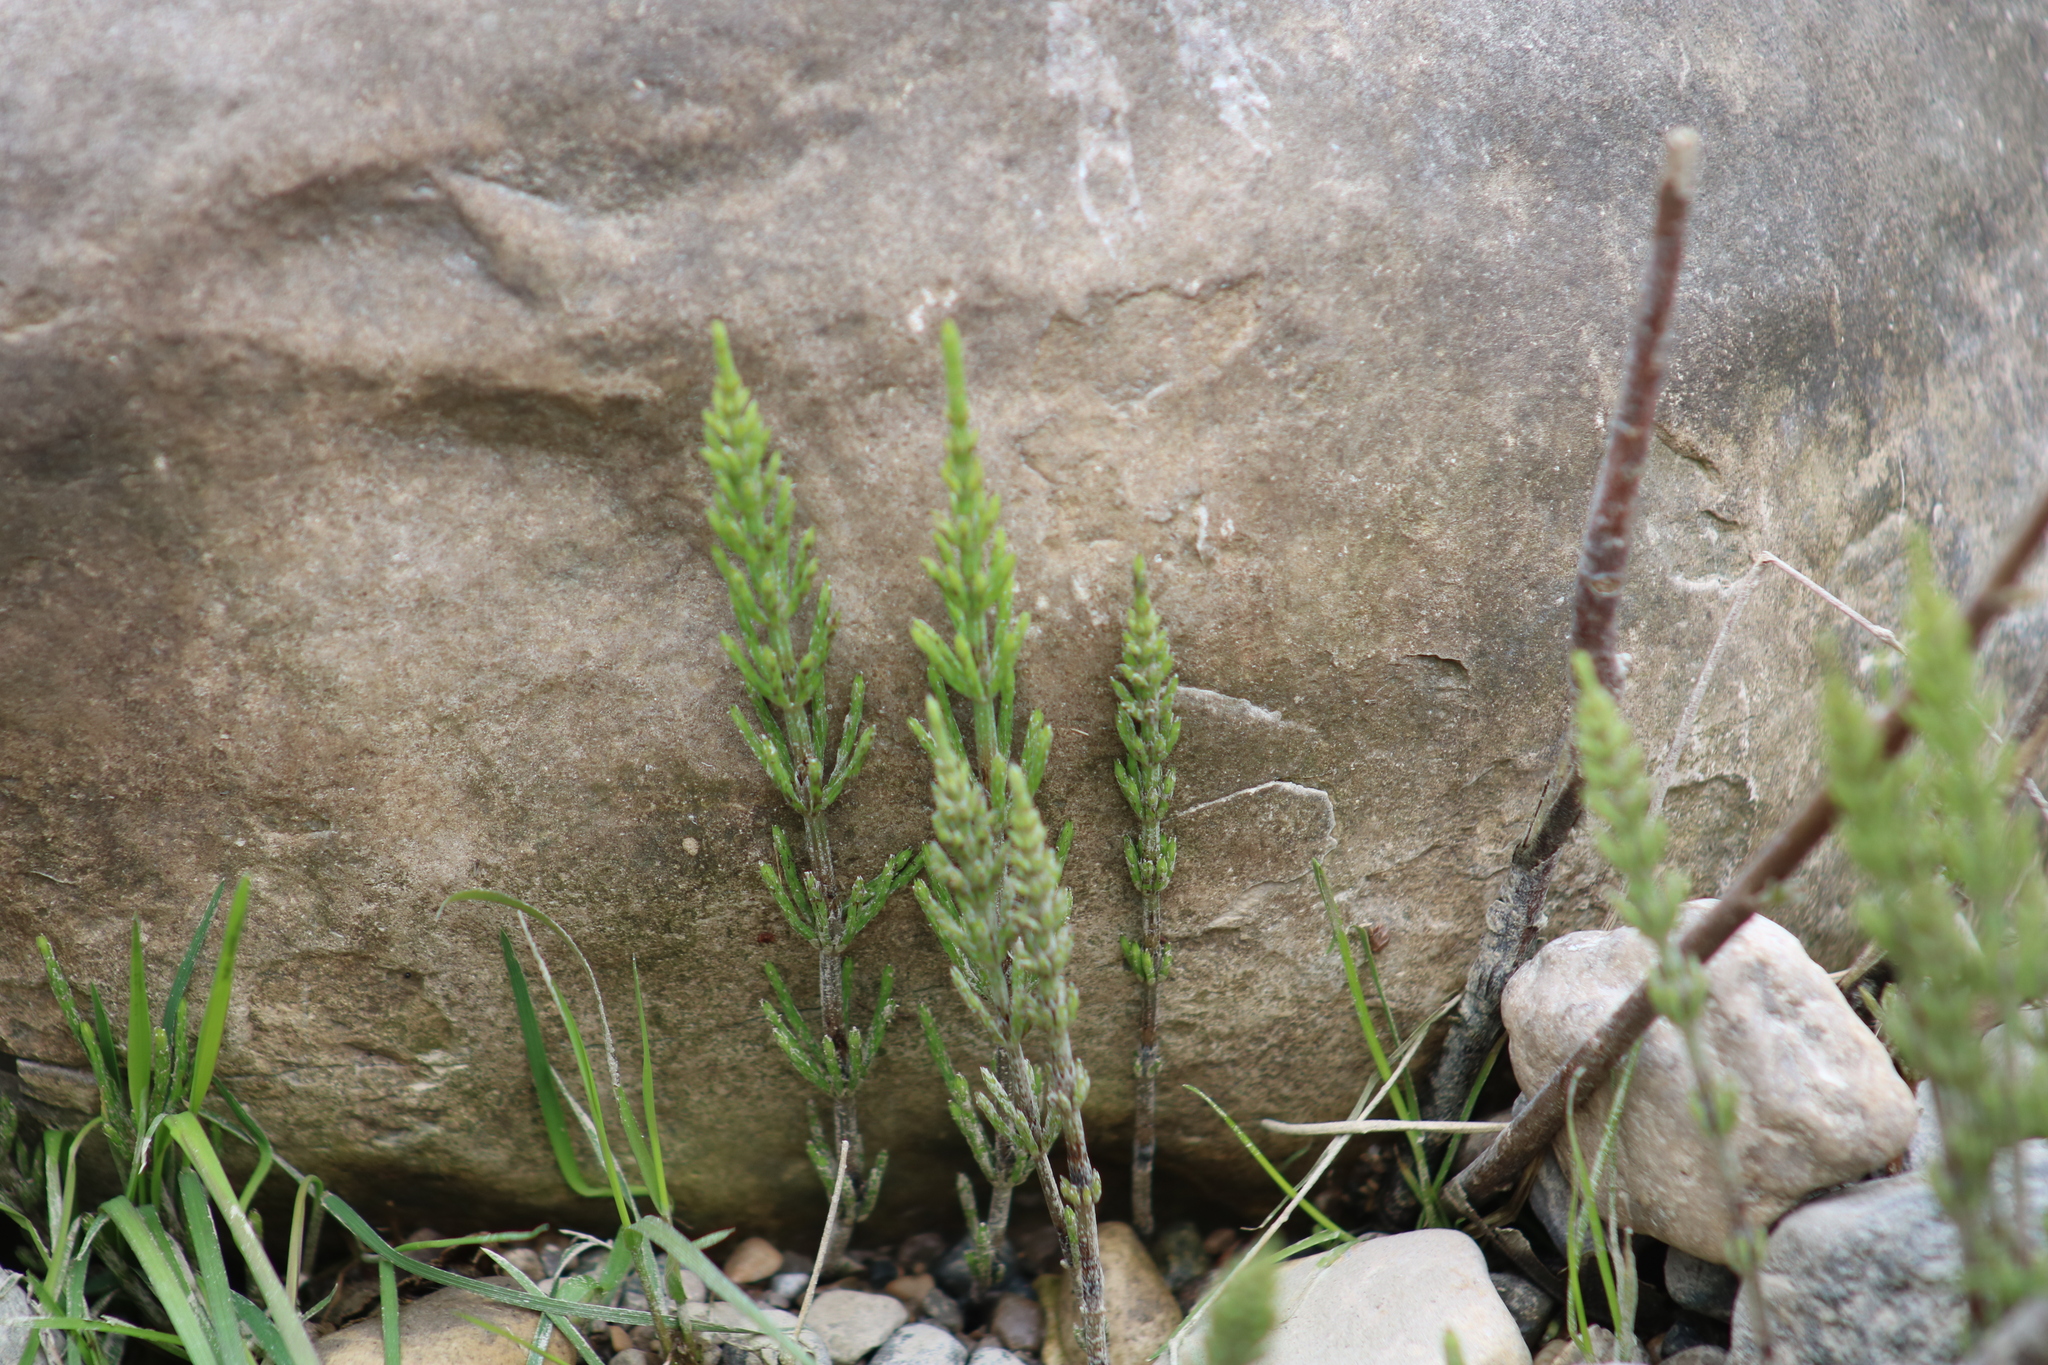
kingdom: Plantae
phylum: Tracheophyta
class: Polypodiopsida
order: Equisetales
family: Equisetaceae
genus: Equisetum
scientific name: Equisetum arvense
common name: Field horsetail
